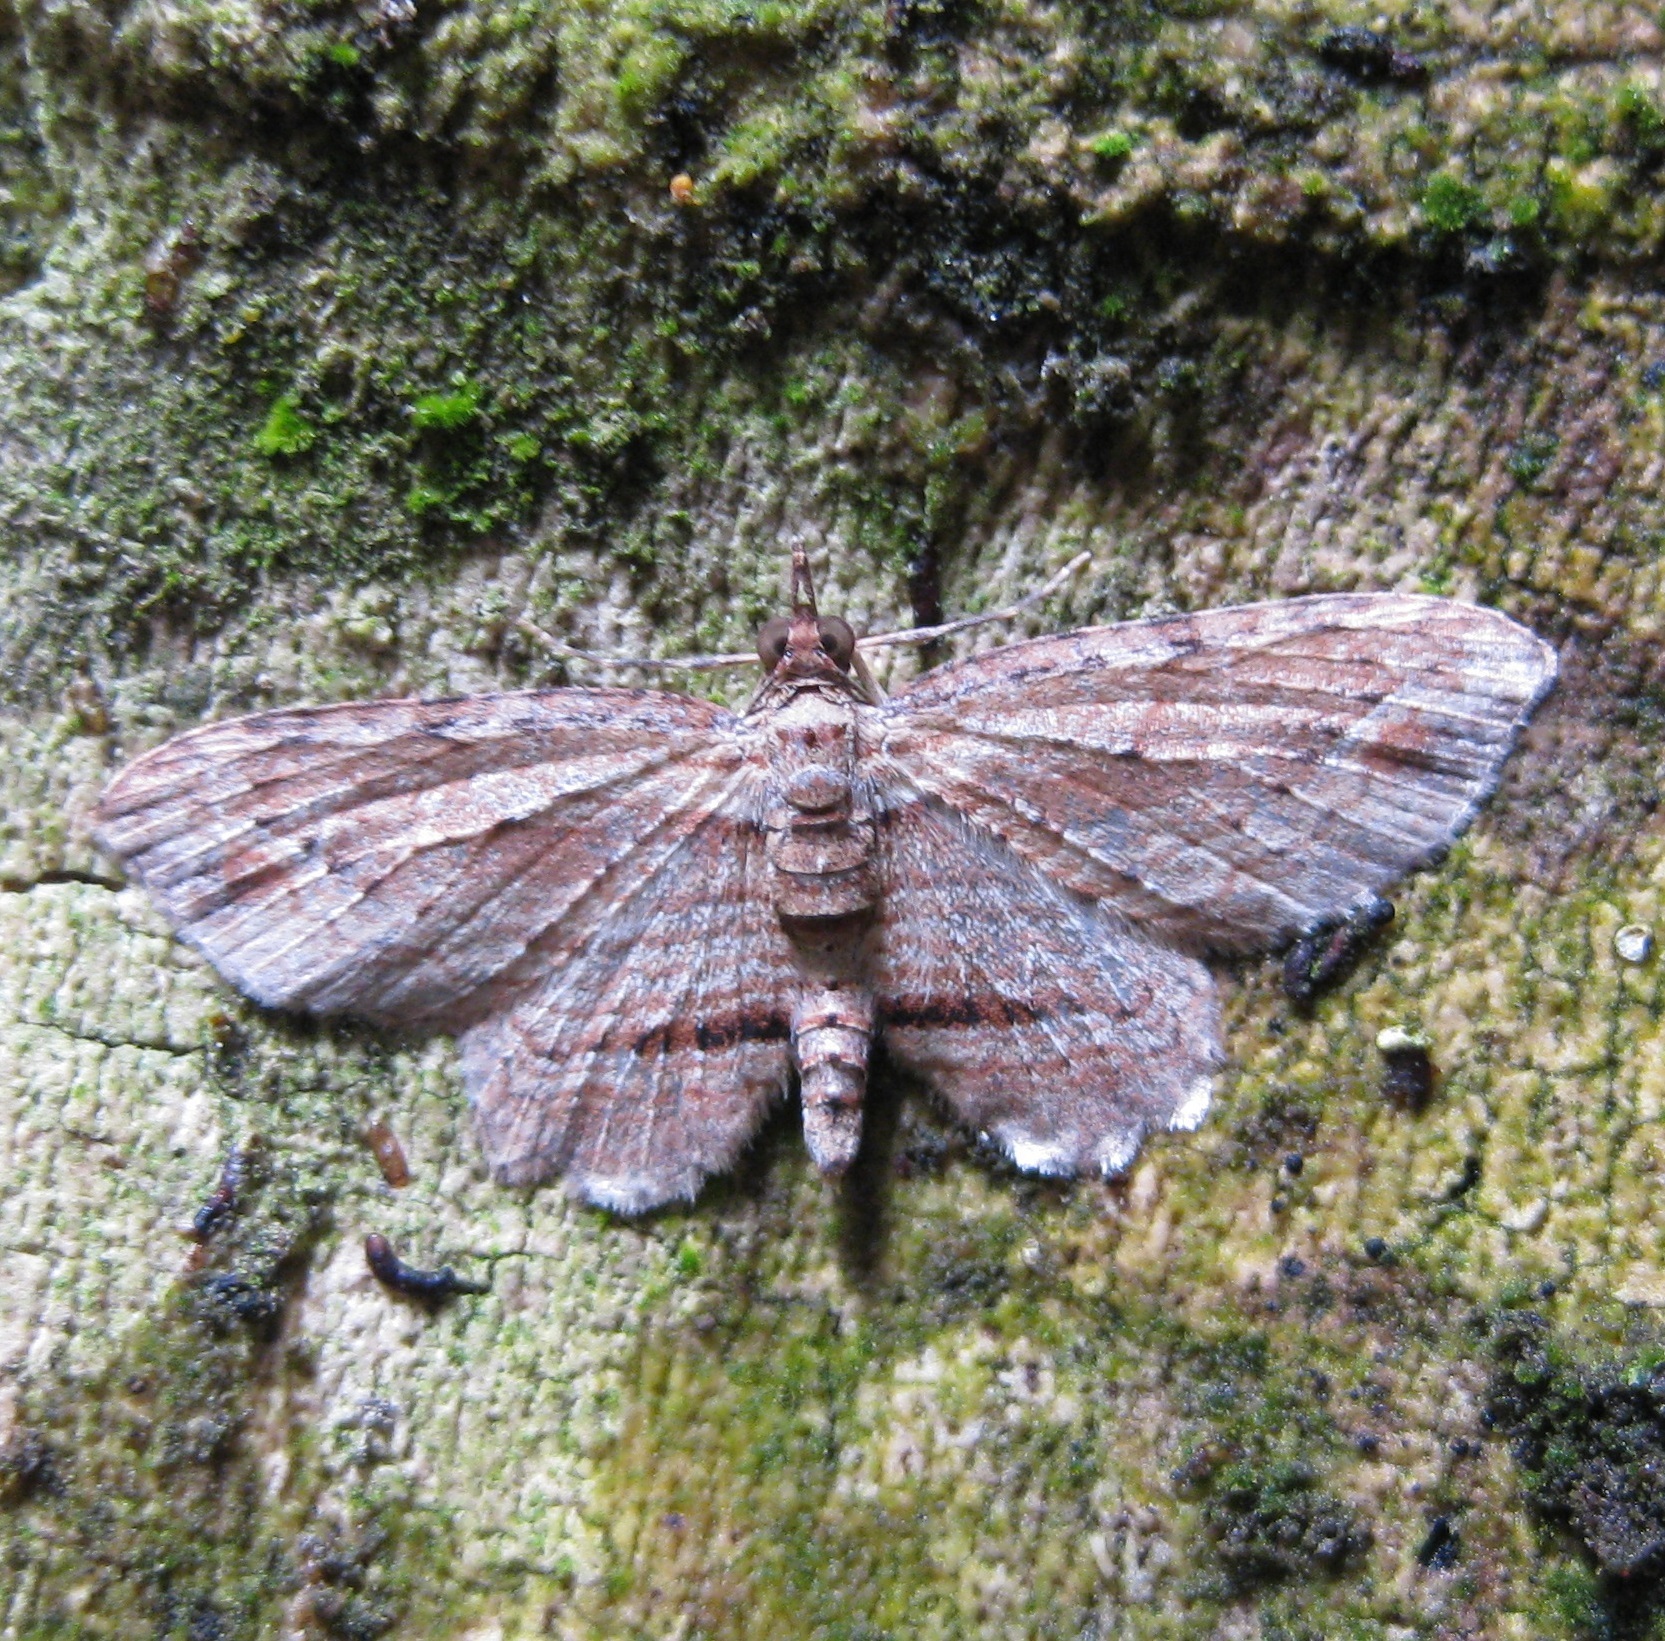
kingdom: Animalia
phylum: Arthropoda
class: Insecta
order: Lepidoptera
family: Geometridae
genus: Chloroclystis
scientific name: Chloroclystis filata
